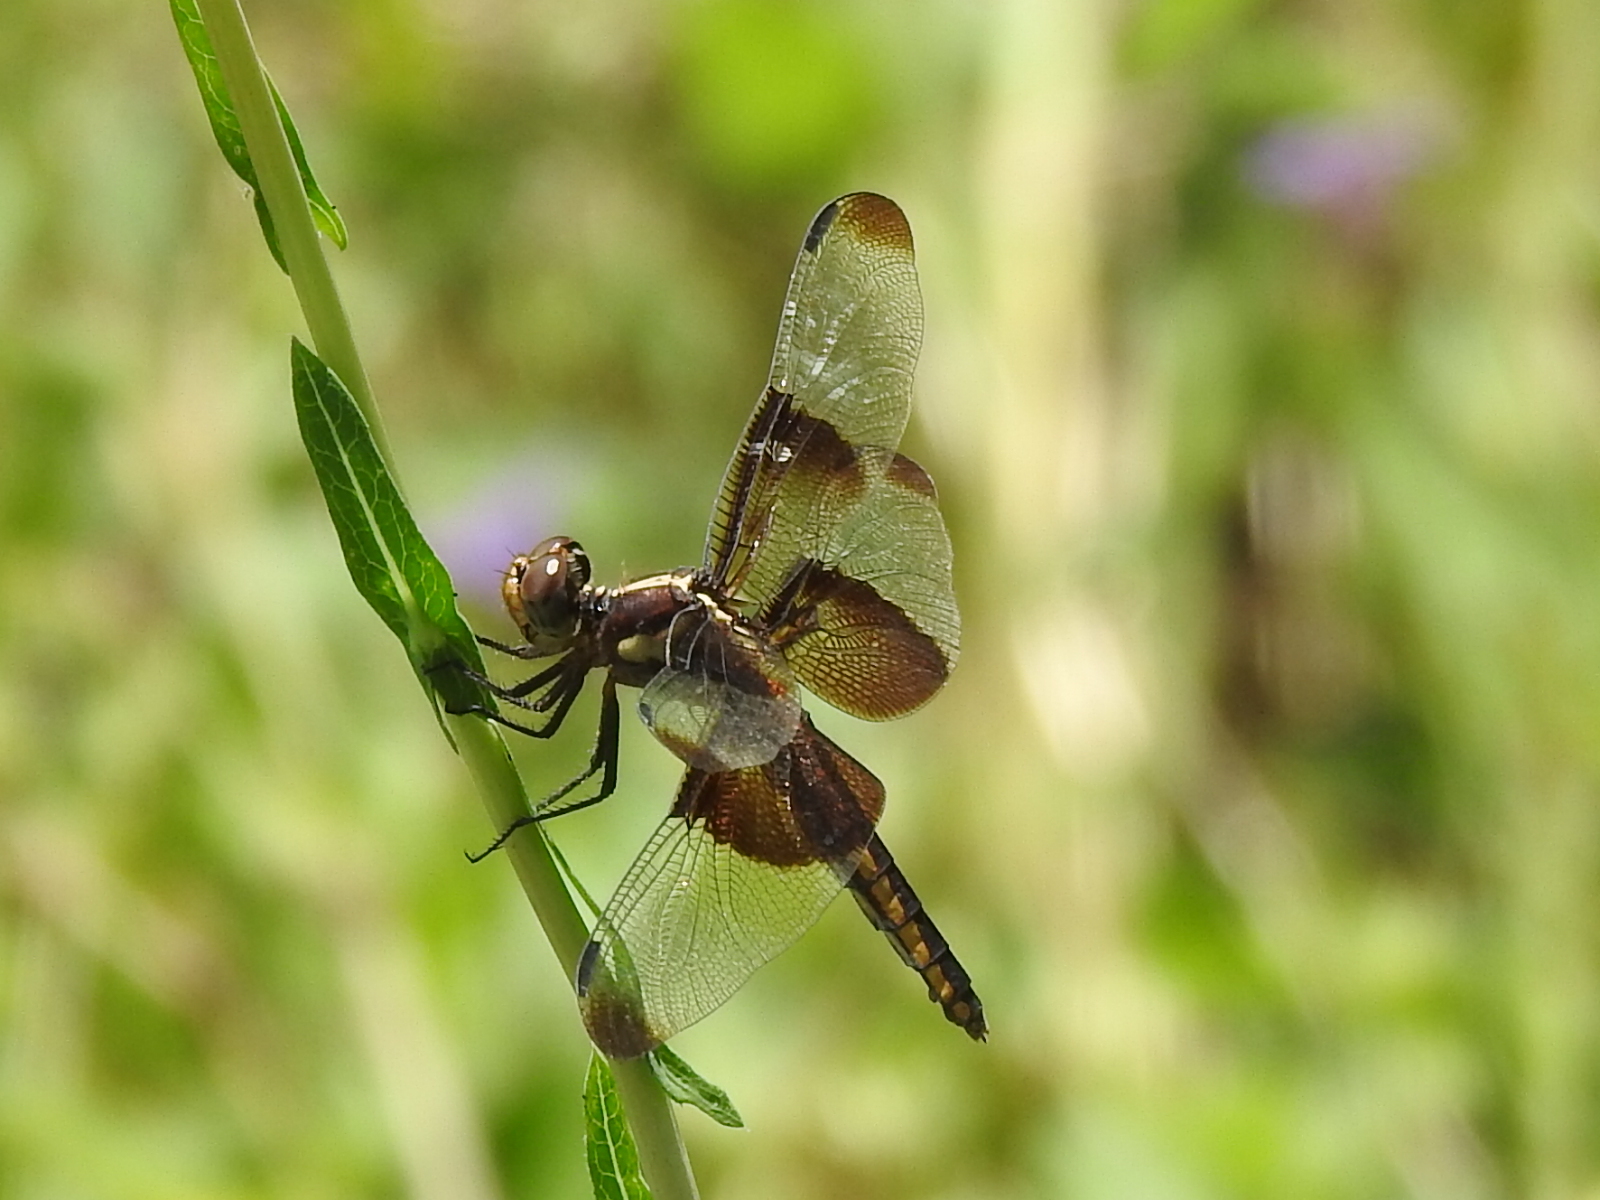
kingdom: Animalia
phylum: Arthropoda
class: Insecta
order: Odonata
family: Libellulidae
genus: Libellula
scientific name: Libellula luctuosa
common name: Widow skimmer
